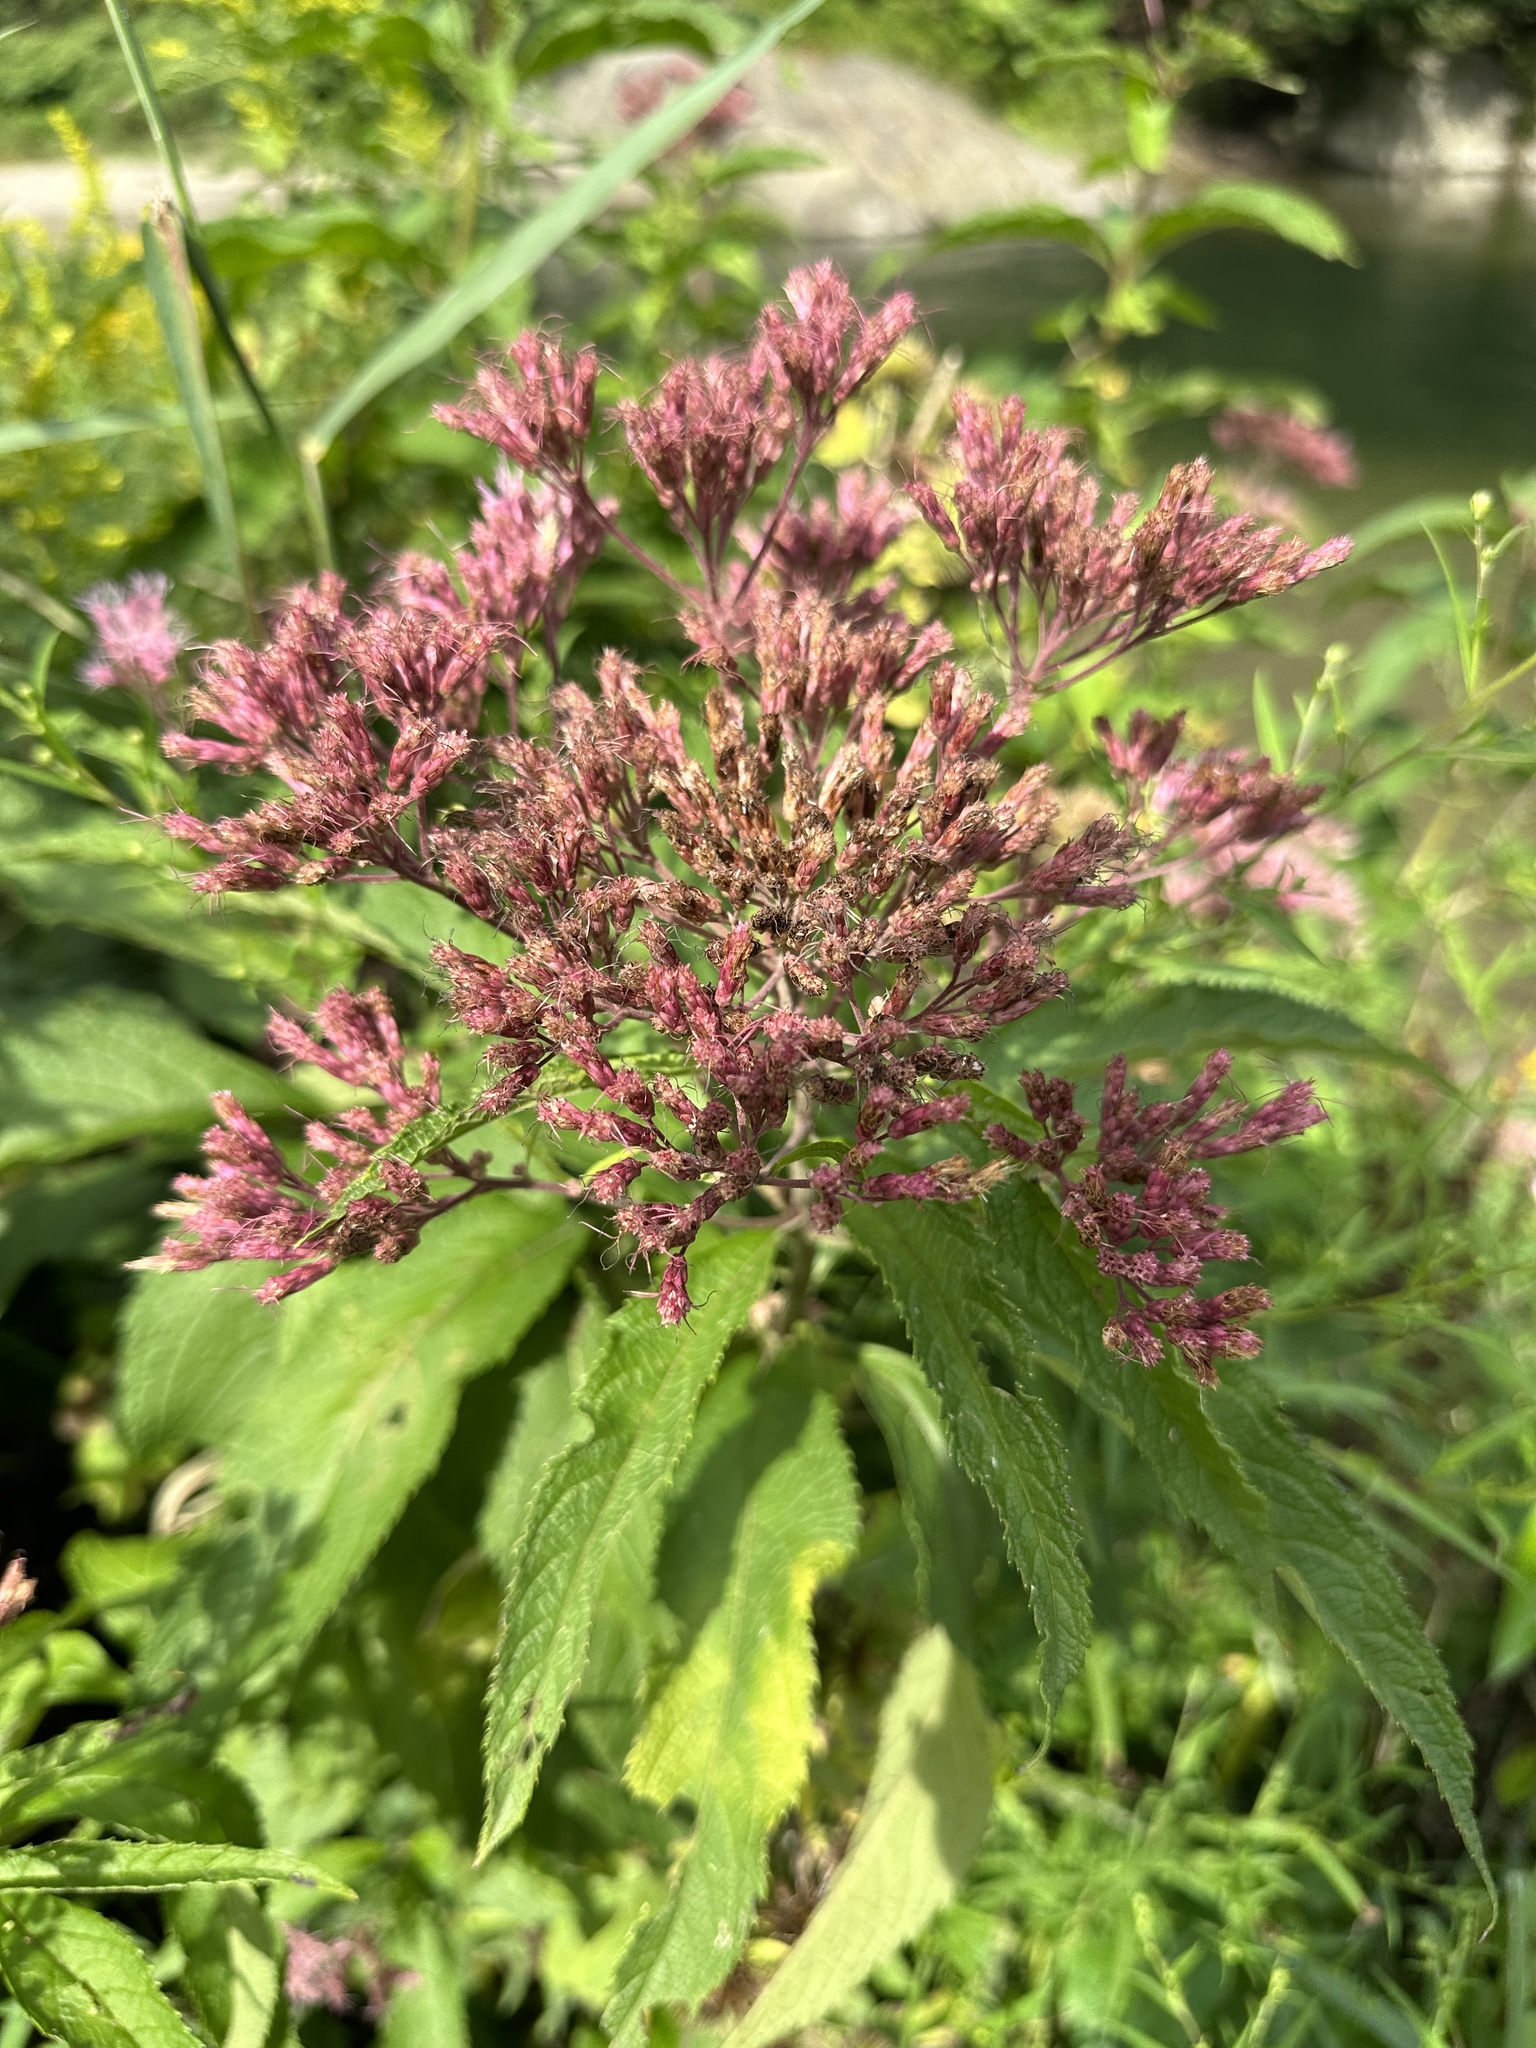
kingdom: Plantae
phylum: Tracheophyta
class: Magnoliopsida
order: Asterales
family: Asteraceae
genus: Eutrochium
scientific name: Eutrochium maculatum
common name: Spotted joe pye weed
